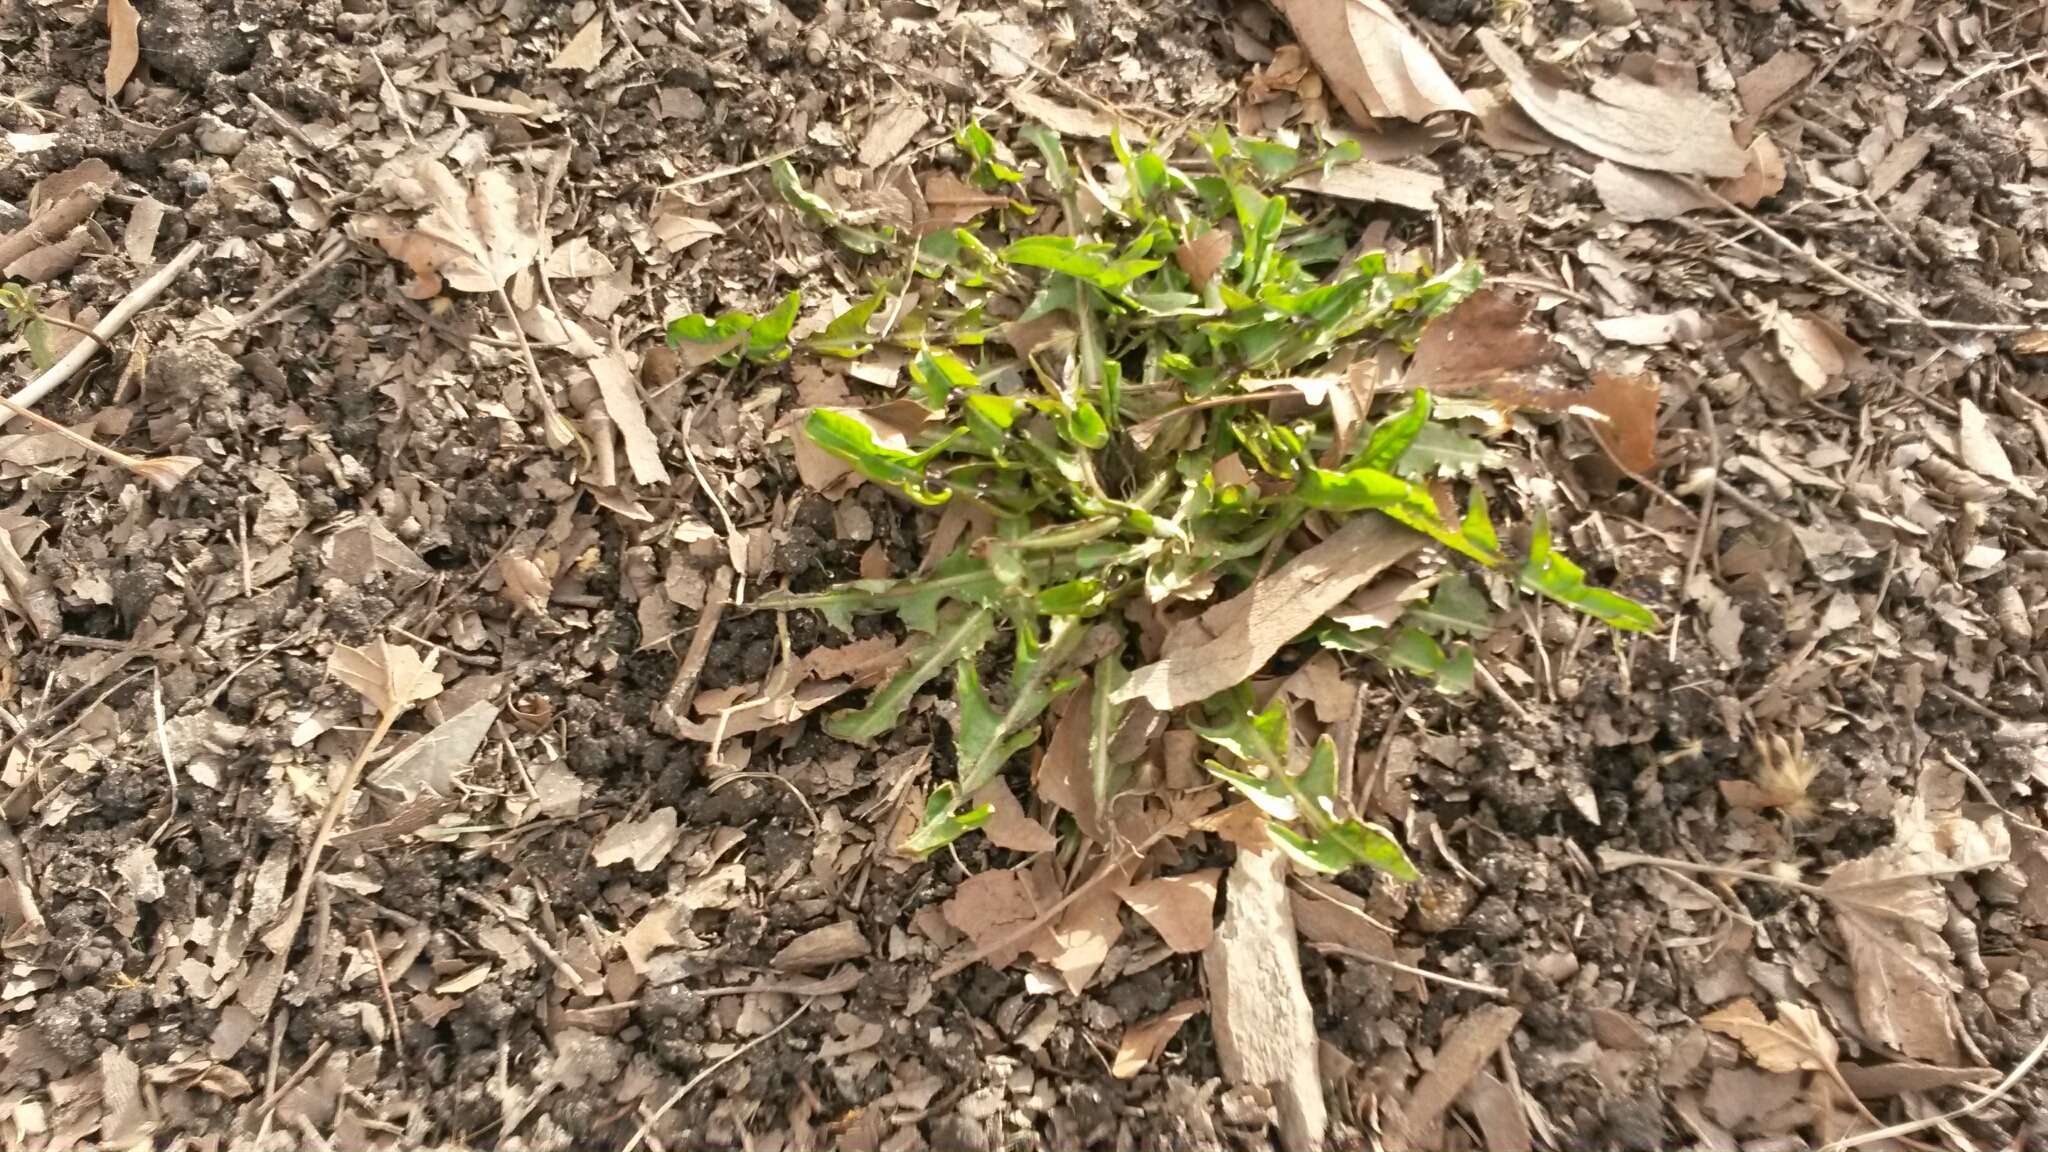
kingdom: Plantae
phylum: Tracheophyta
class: Magnoliopsida
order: Asterales
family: Asteraceae
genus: Taraxacum
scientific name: Taraxacum
